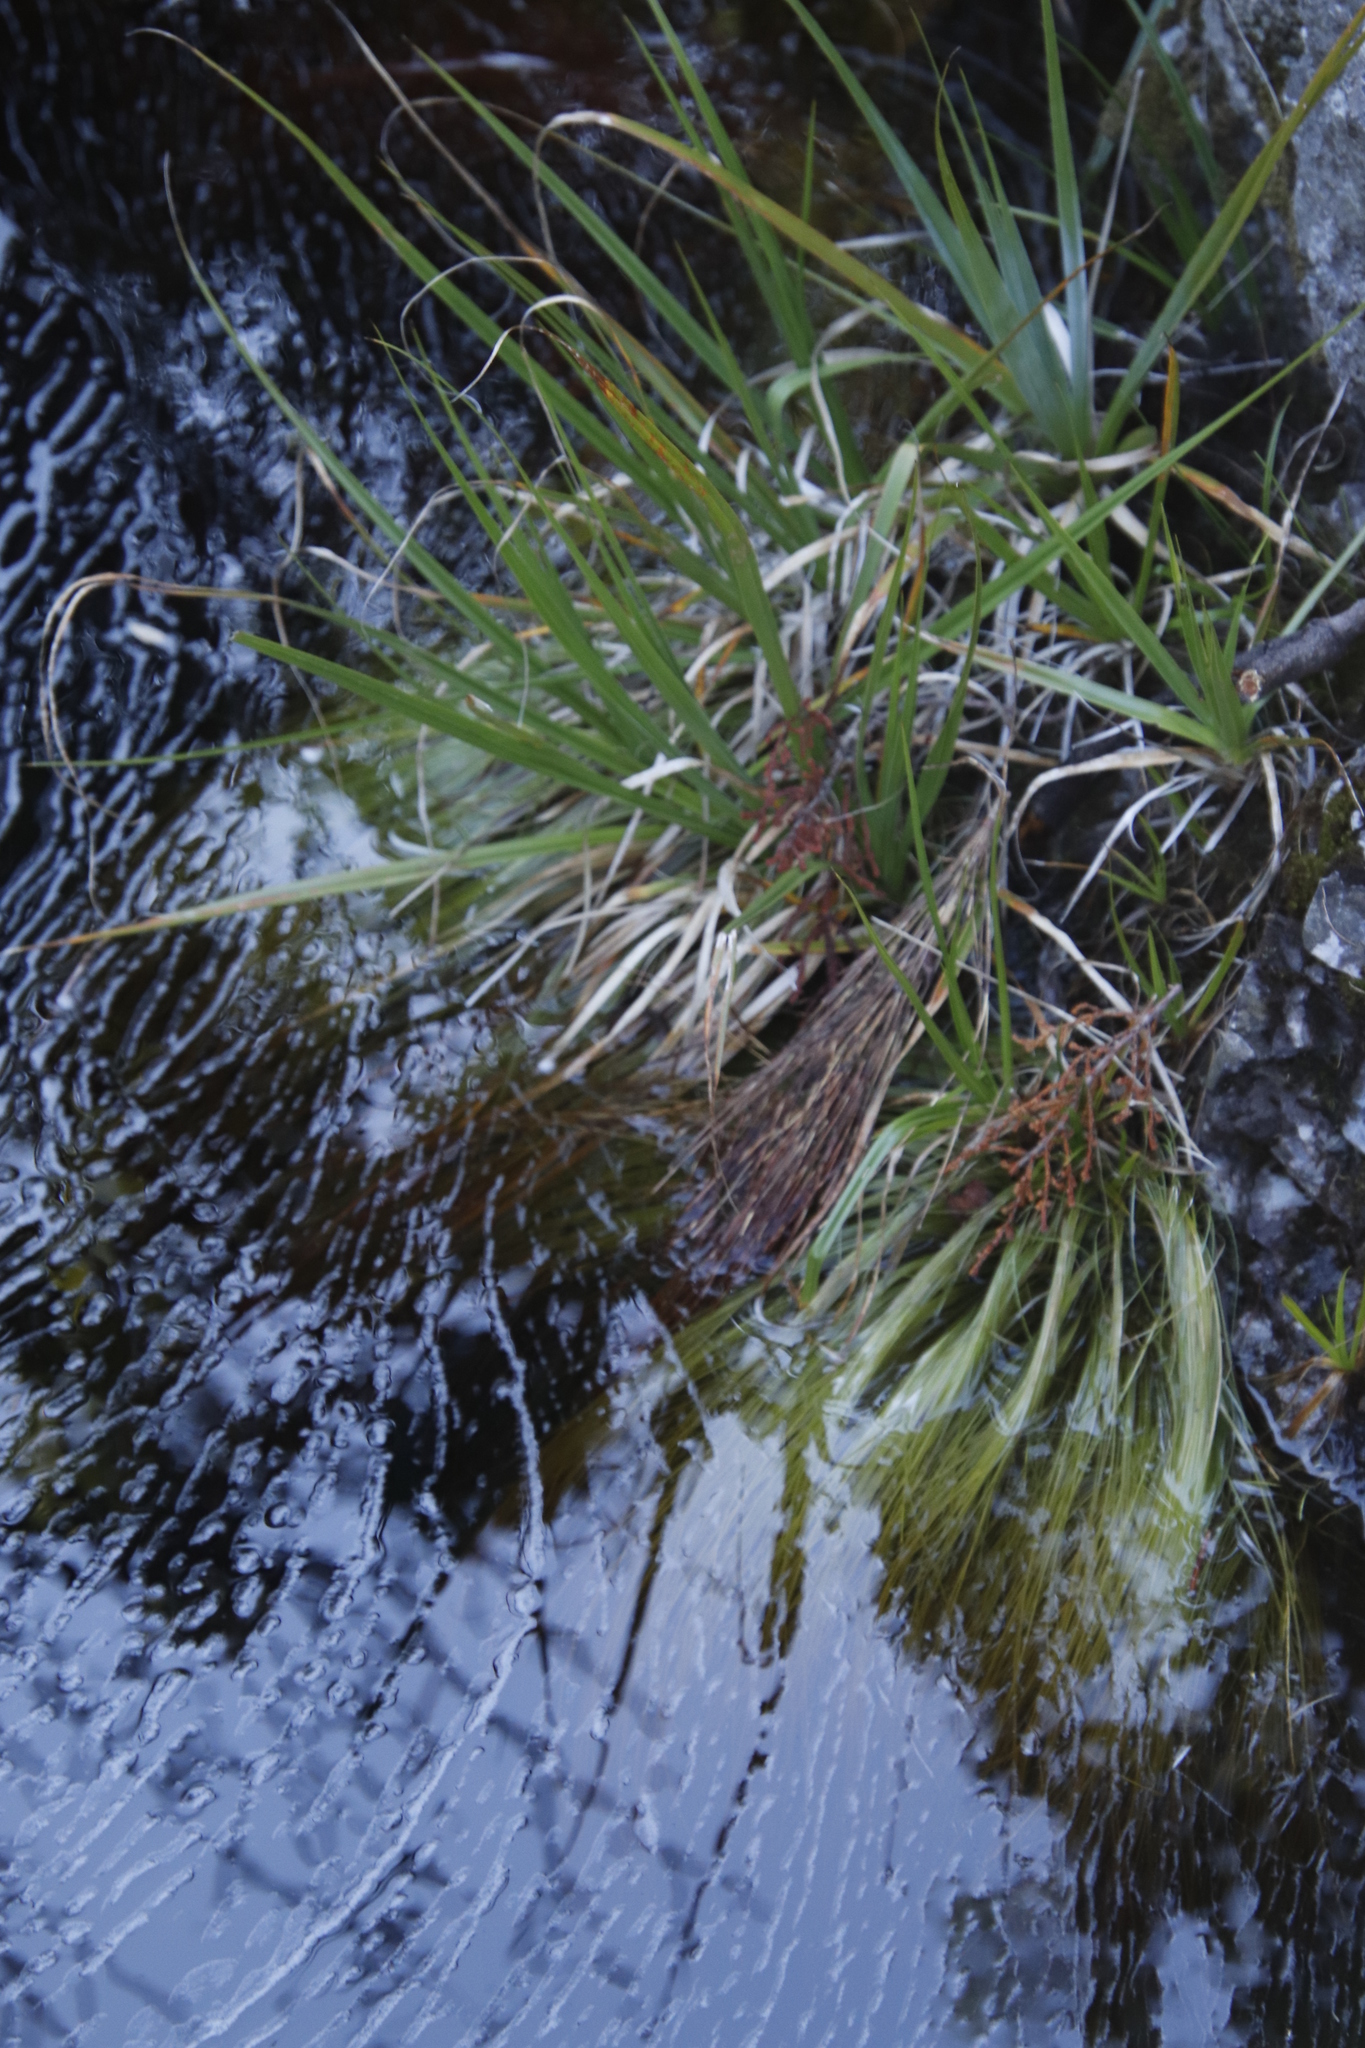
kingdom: Plantae
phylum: Tracheophyta
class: Liliopsida
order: Poales
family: Cyperaceae
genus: Isolepis
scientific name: Isolepis digitata
